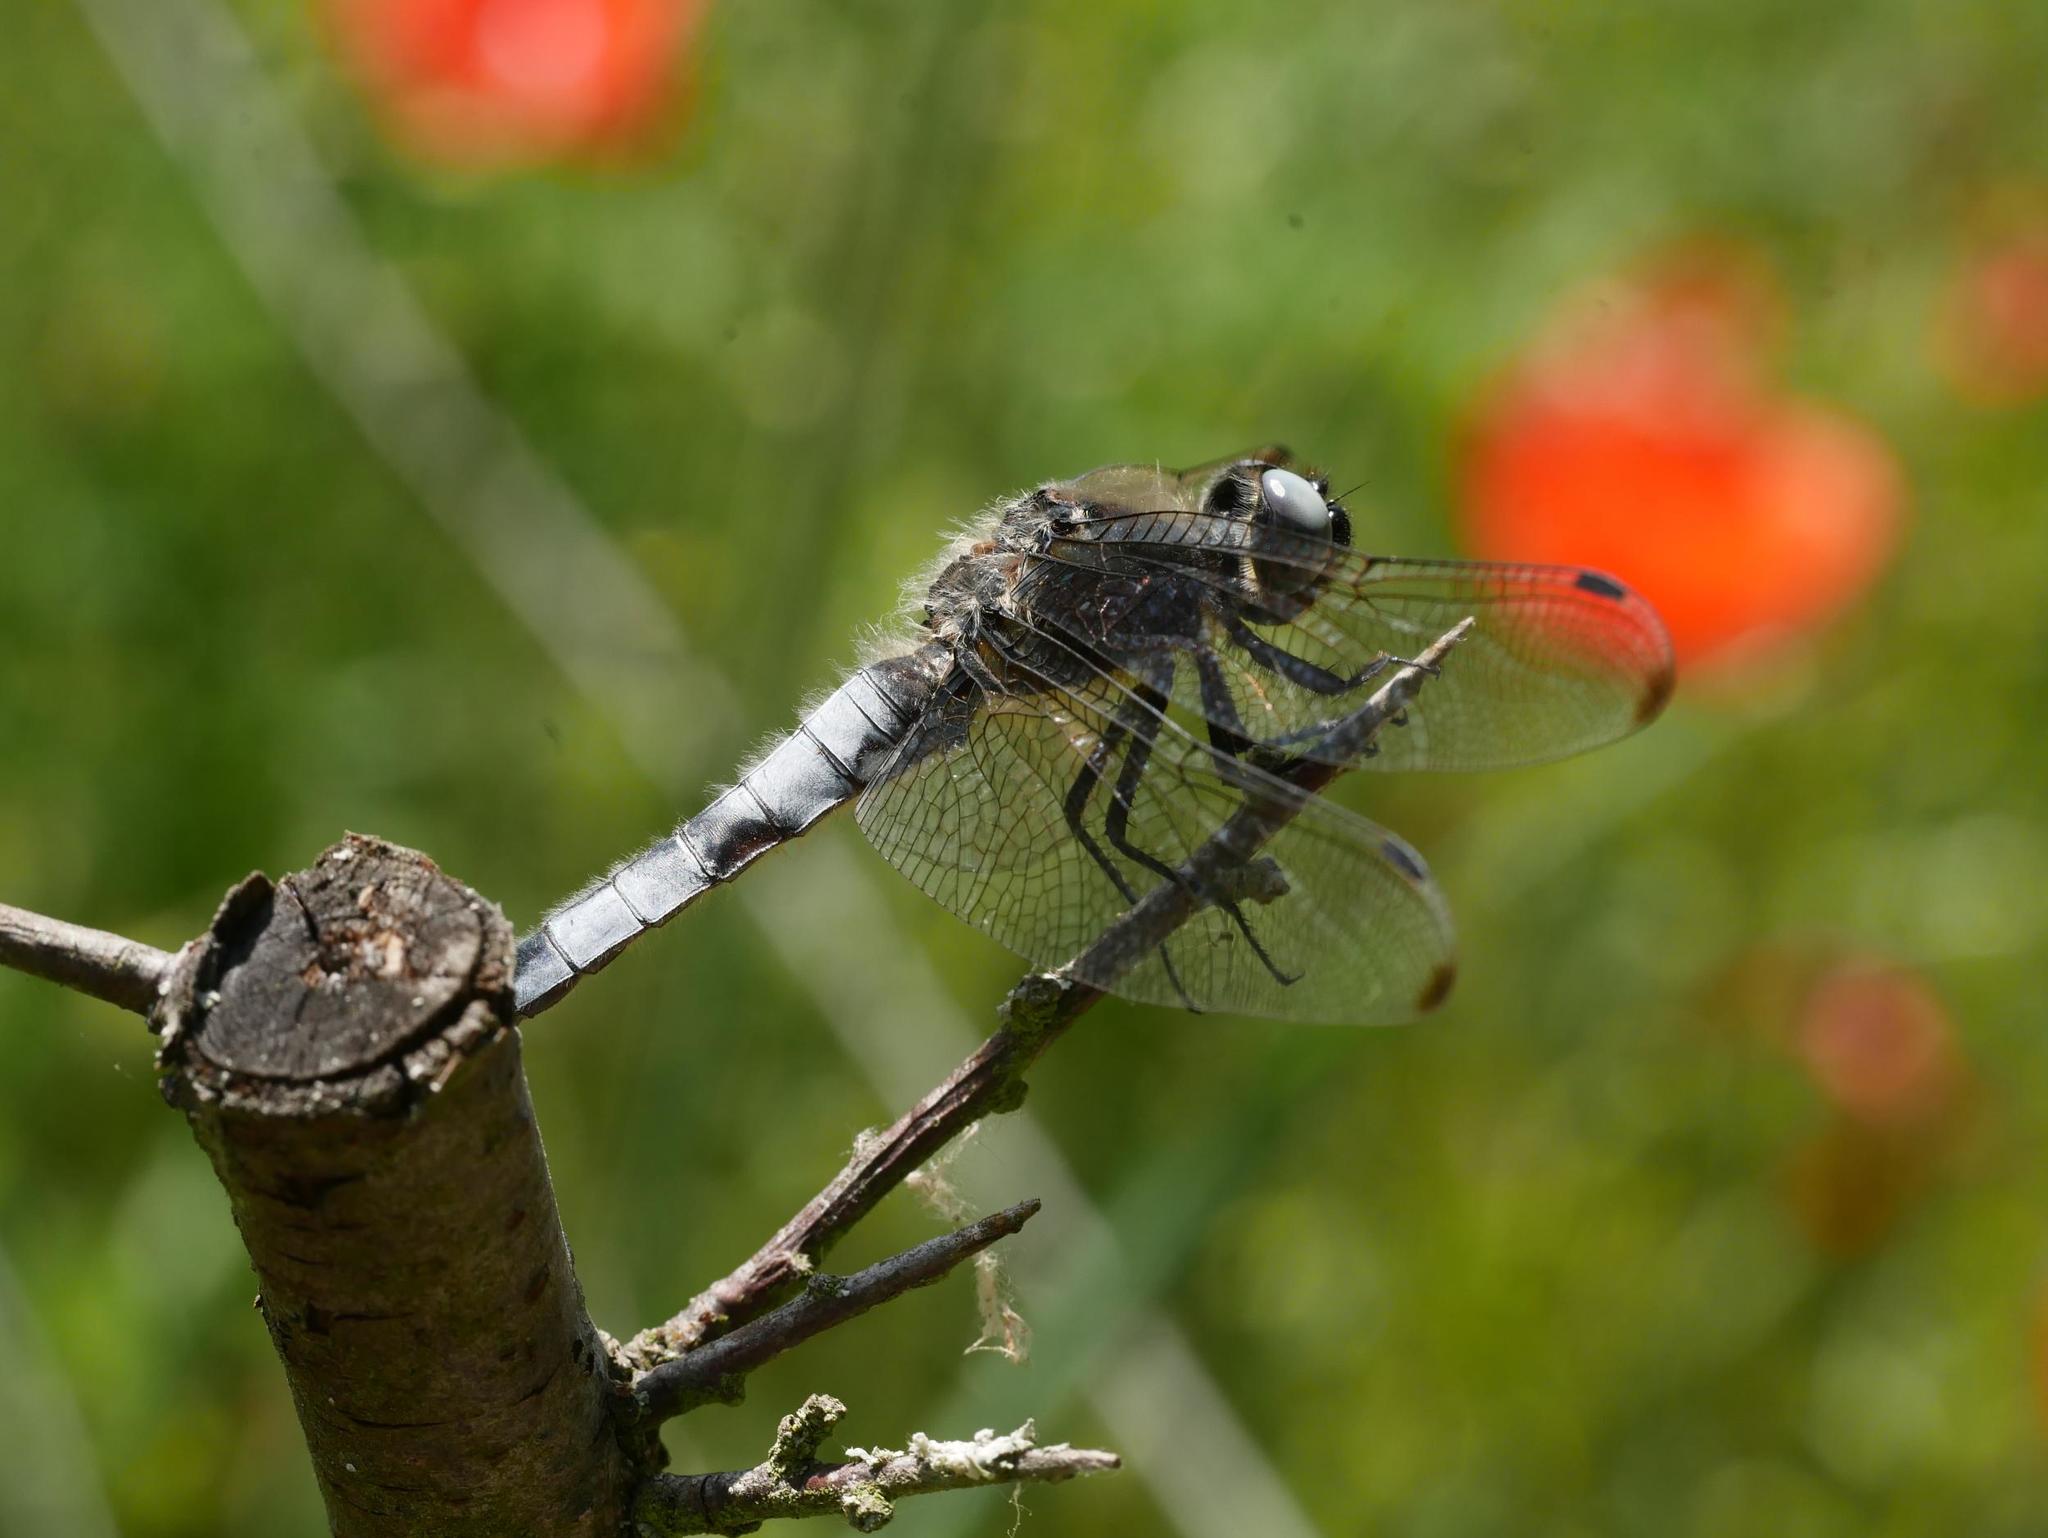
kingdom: Animalia
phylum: Arthropoda
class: Insecta
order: Odonata
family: Libellulidae
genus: Libellula
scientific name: Libellula fulva
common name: Blue chaser
